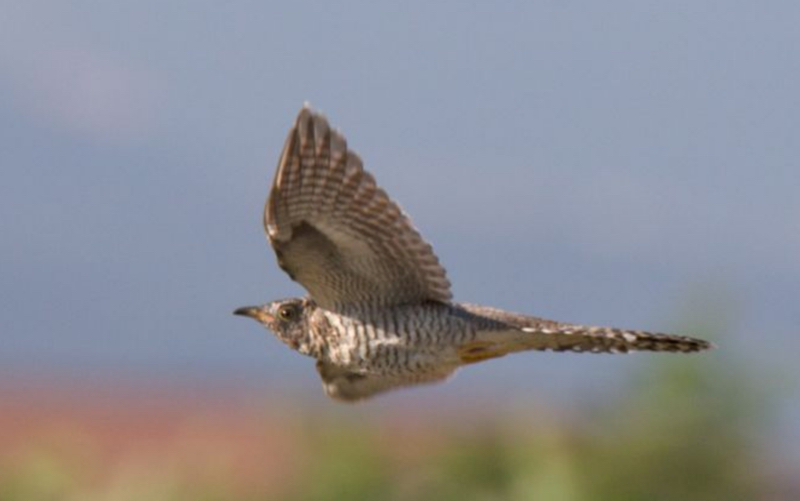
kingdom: Animalia
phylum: Chordata
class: Aves
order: Cuculiformes
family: Cuculidae
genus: Cuculus
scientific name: Cuculus canorus
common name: Common cuckoo
